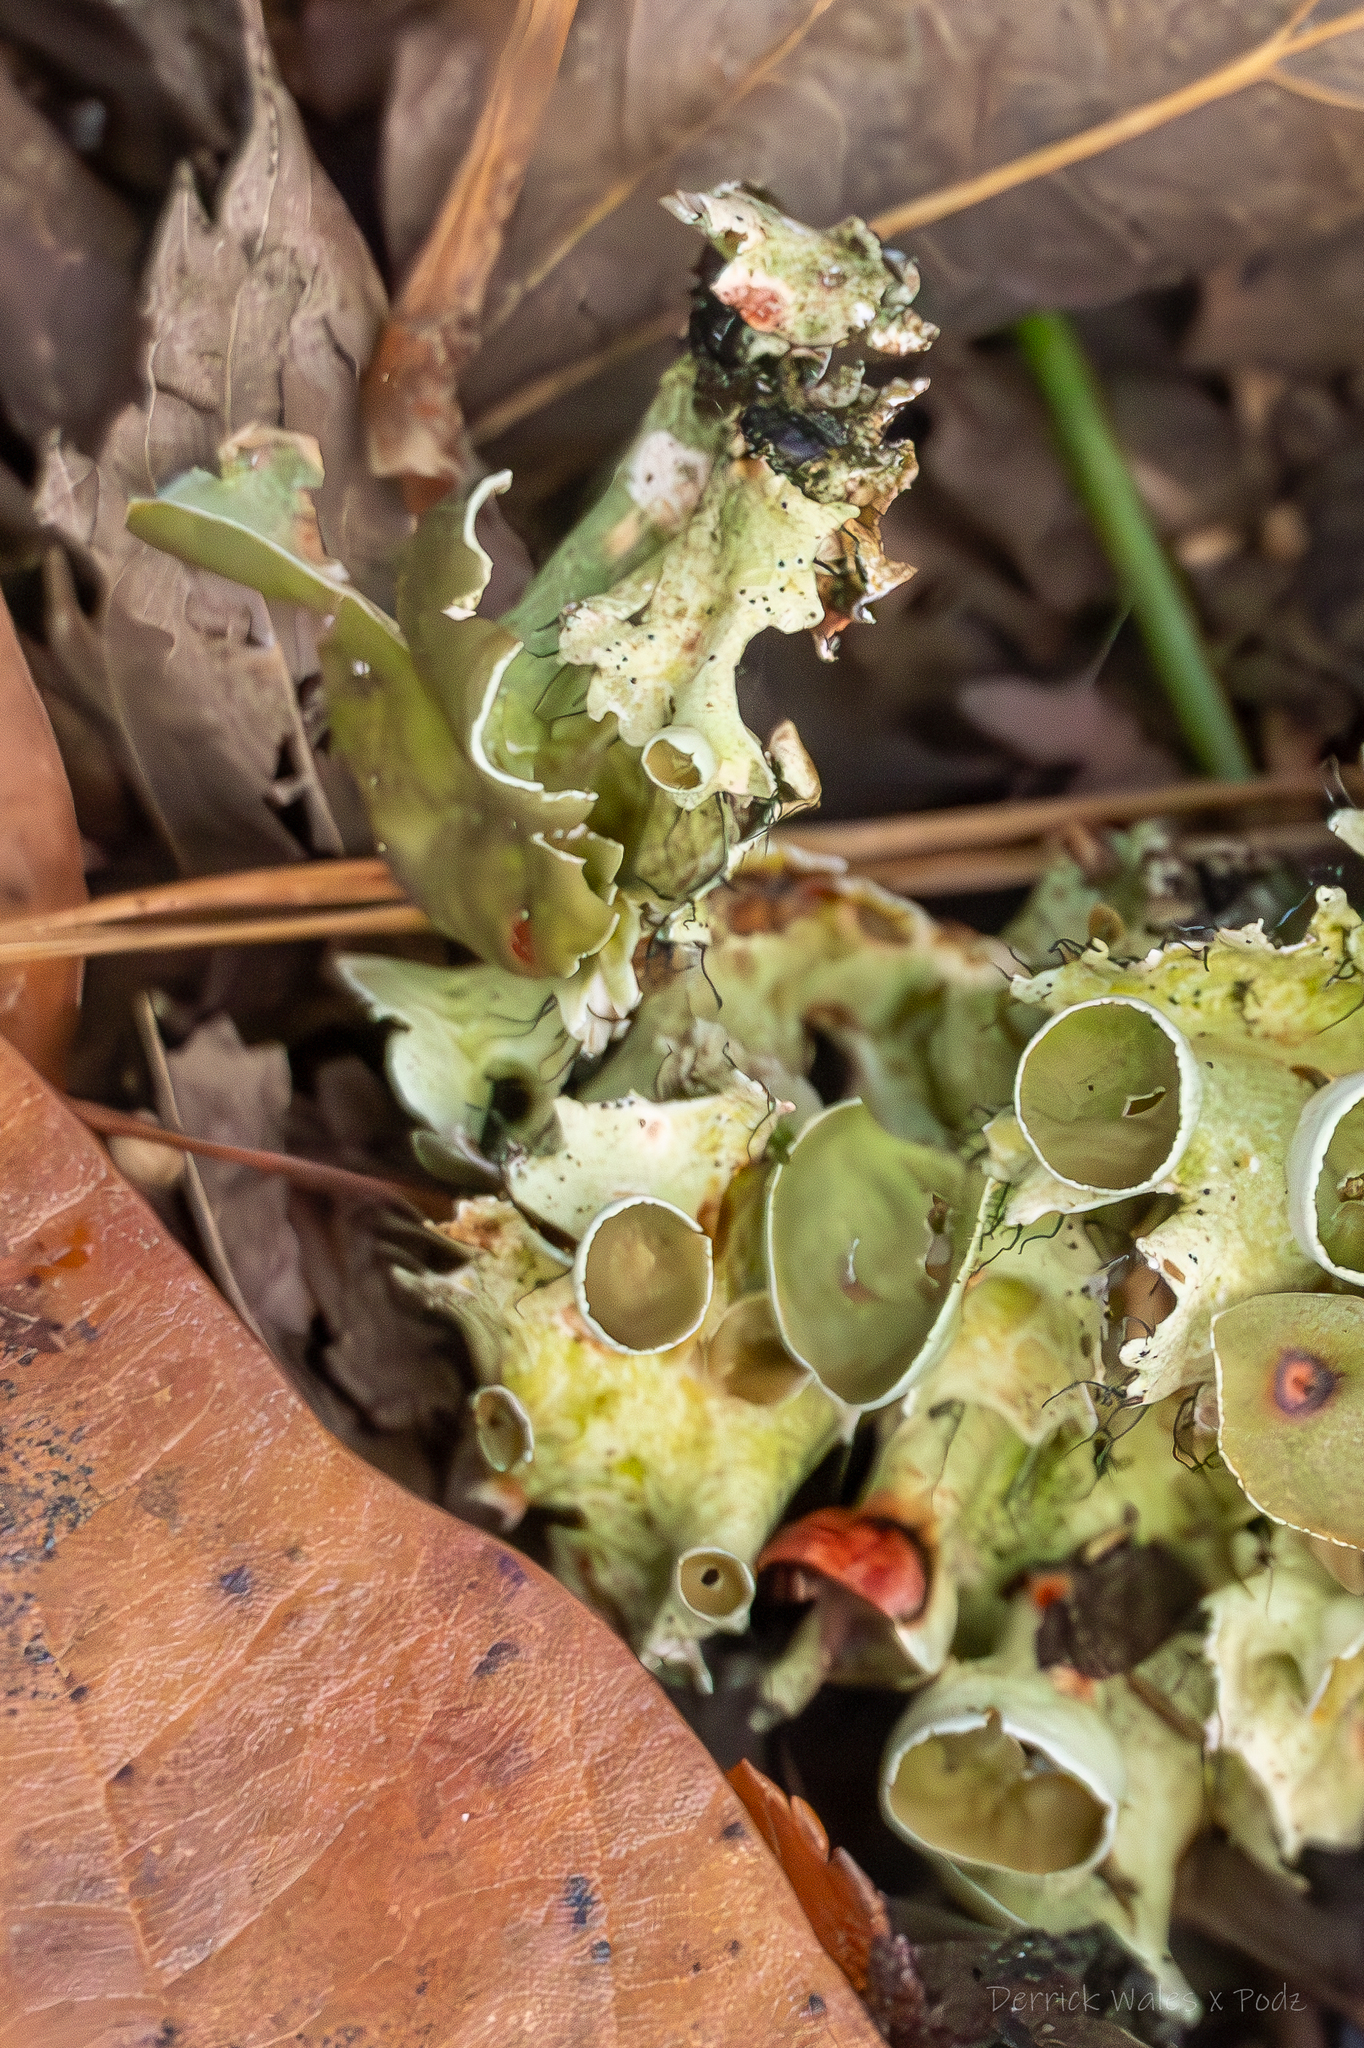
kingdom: Fungi
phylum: Ascomycota
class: Lecanoromycetes
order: Lecanorales
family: Parmeliaceae
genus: Parmotrema
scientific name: Parmotrema perforatum
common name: Perforated ruffle lichen
